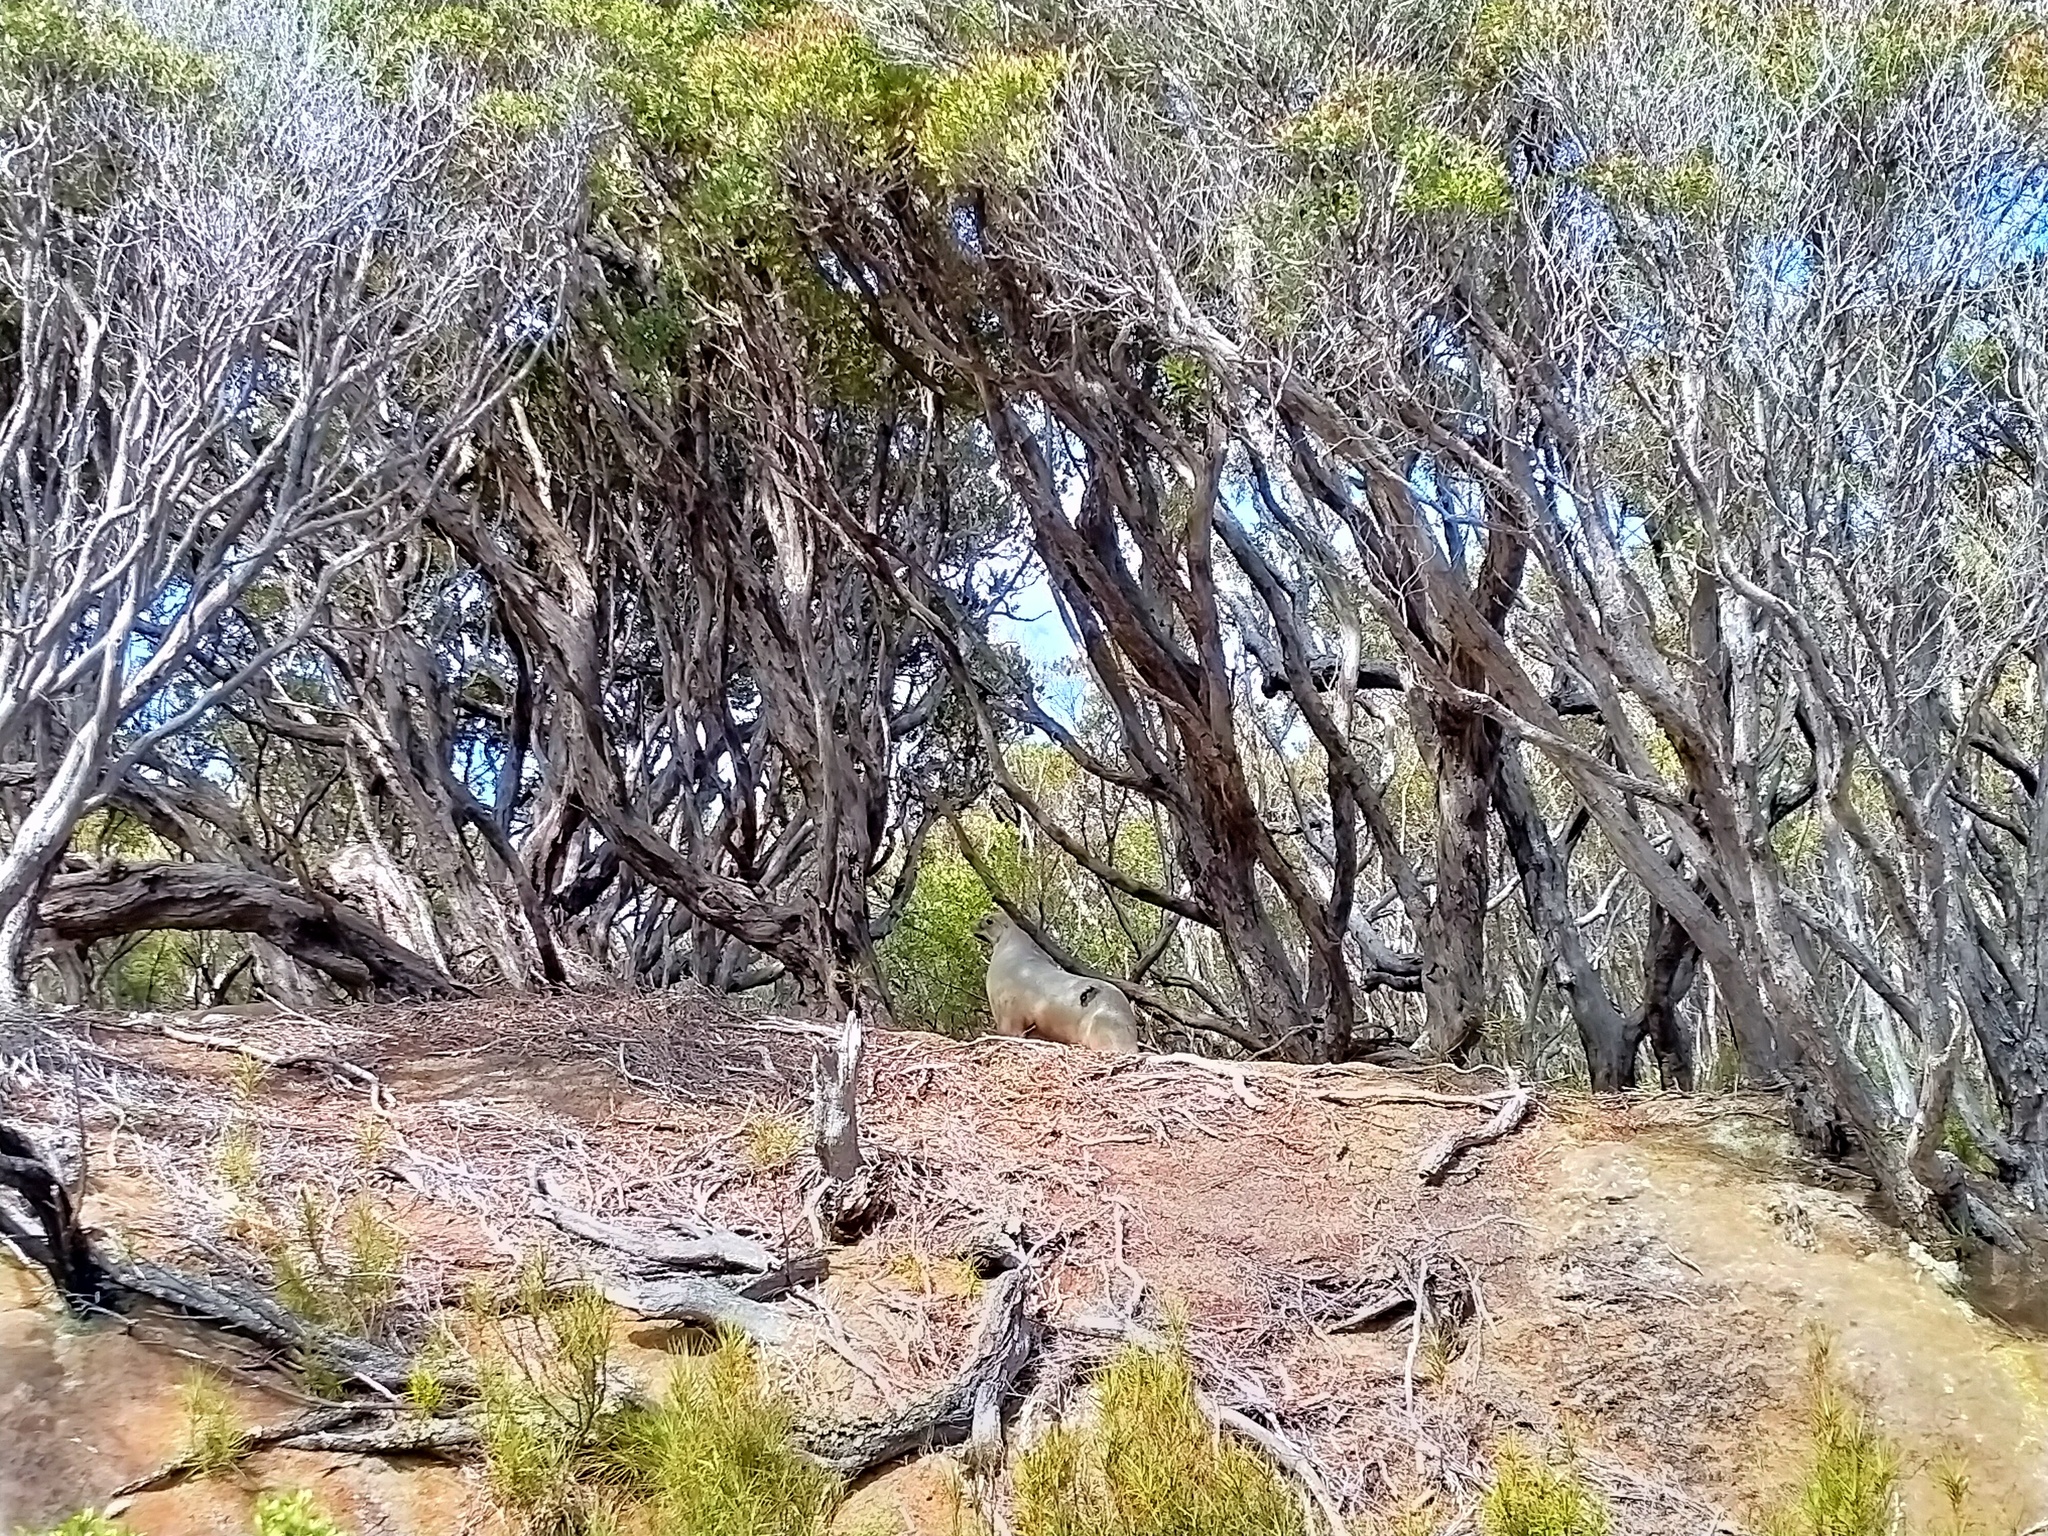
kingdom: Animalia
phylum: Chordata
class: Mammalia
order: Carnivora
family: Otariidae
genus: Phocarctos
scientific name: Phocarctos hookeri
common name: New zealand sea lion
